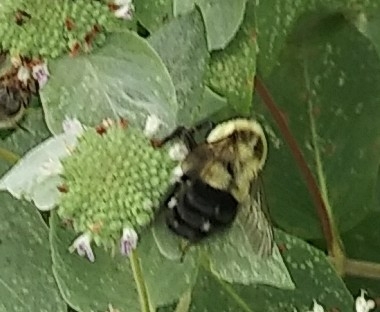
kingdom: Animalia
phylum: Arthropoda
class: Insecta
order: Hymenoptera
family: Apidae
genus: Bombus
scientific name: Bombus impatiens
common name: Common eastern bumble bee
